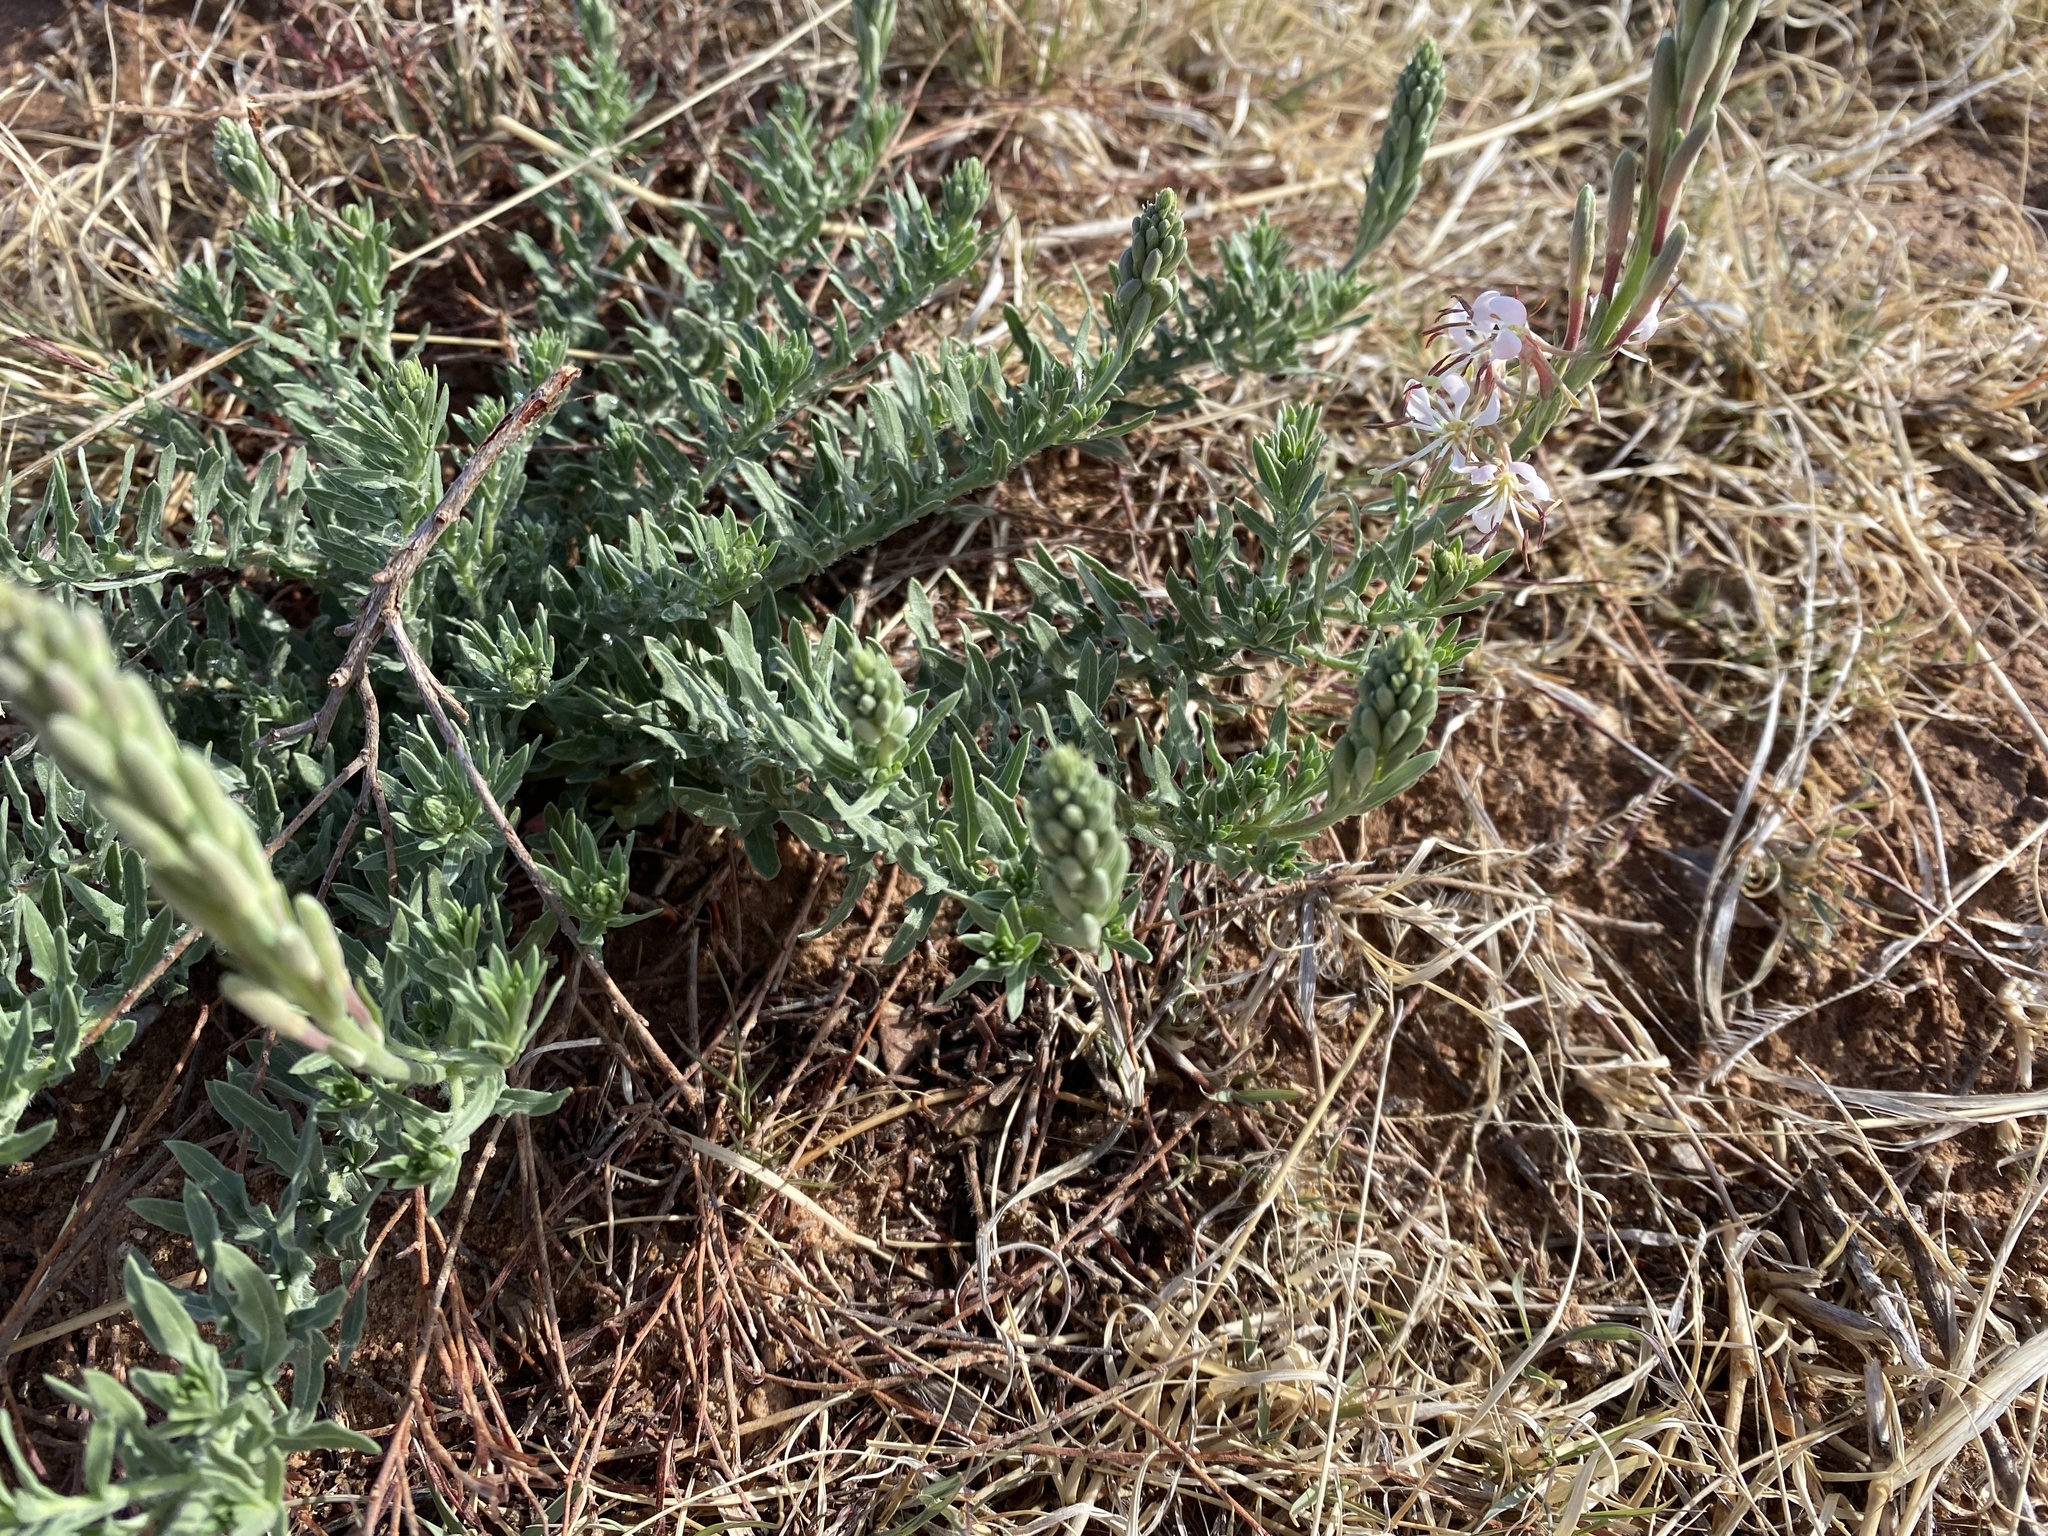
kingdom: Plantae
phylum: Tracheophyta
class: Magnoliopsida
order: Myrtales
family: Onagraceae
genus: Oenothera
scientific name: Oenothera suffrutescens
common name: Scarlet beeblossom
